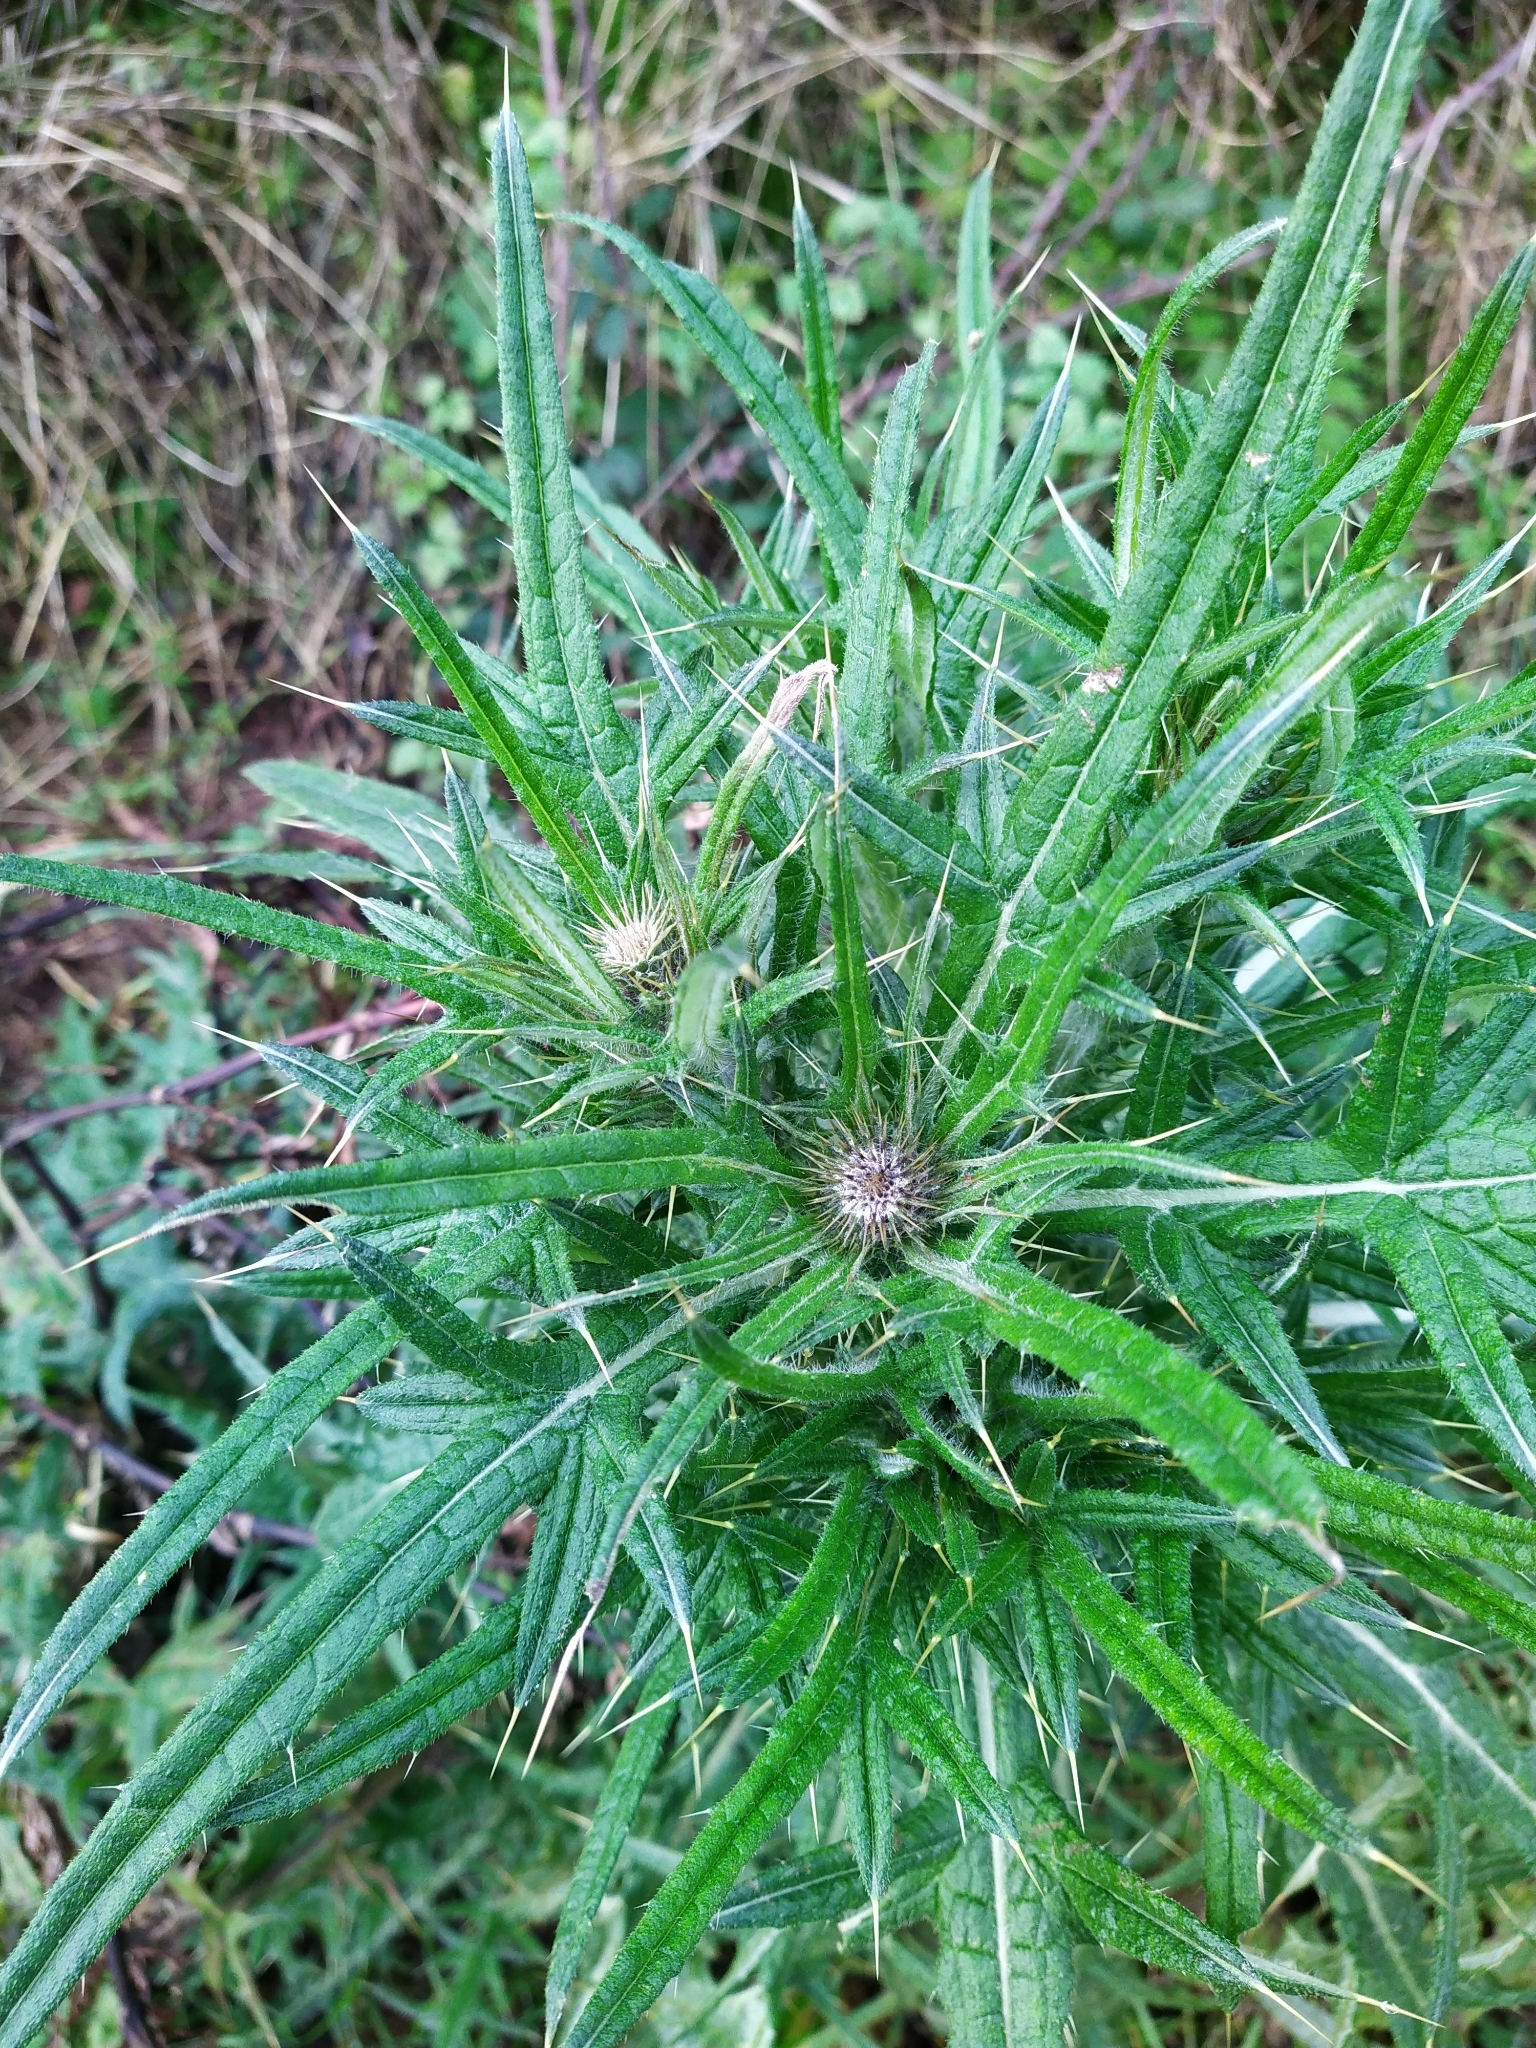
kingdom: Plantae
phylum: Tracheophyta
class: Magnoliopsida
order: Asterales
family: Asteraceae
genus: Cirsium
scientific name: Cirsium vulgare
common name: Bull thistle
